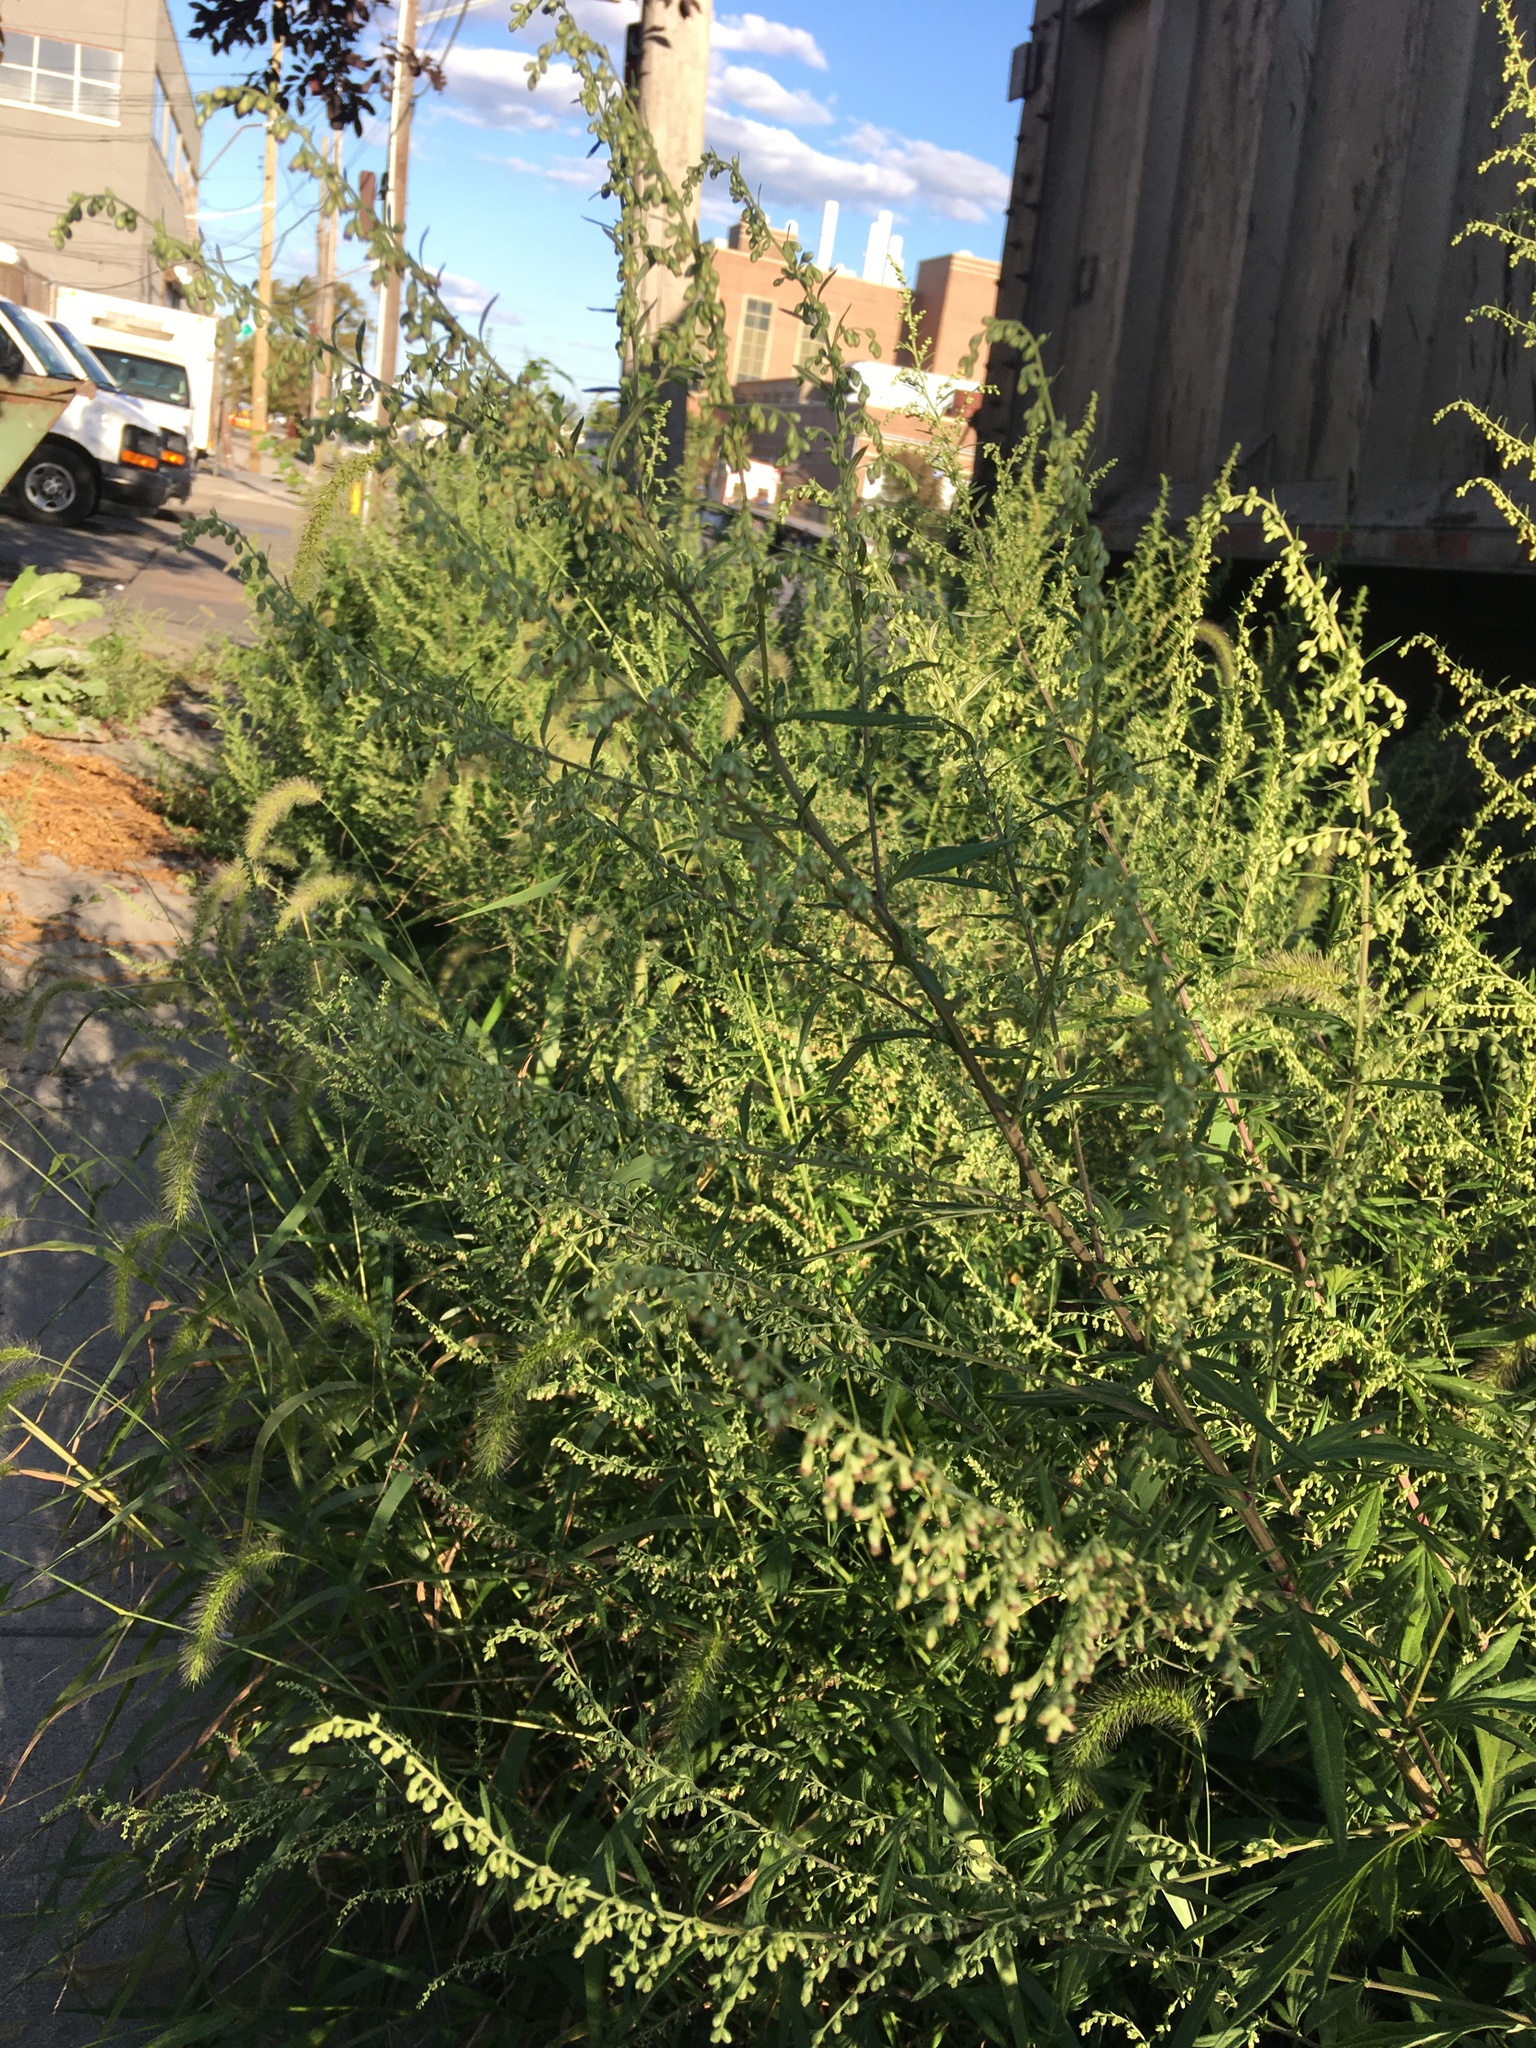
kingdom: Plantae
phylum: Tracheophyta
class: Magnoliopsida
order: Asterales
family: Asteraceae
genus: Artemisia
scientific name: Artemisia vulgaris
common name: Mugwort
